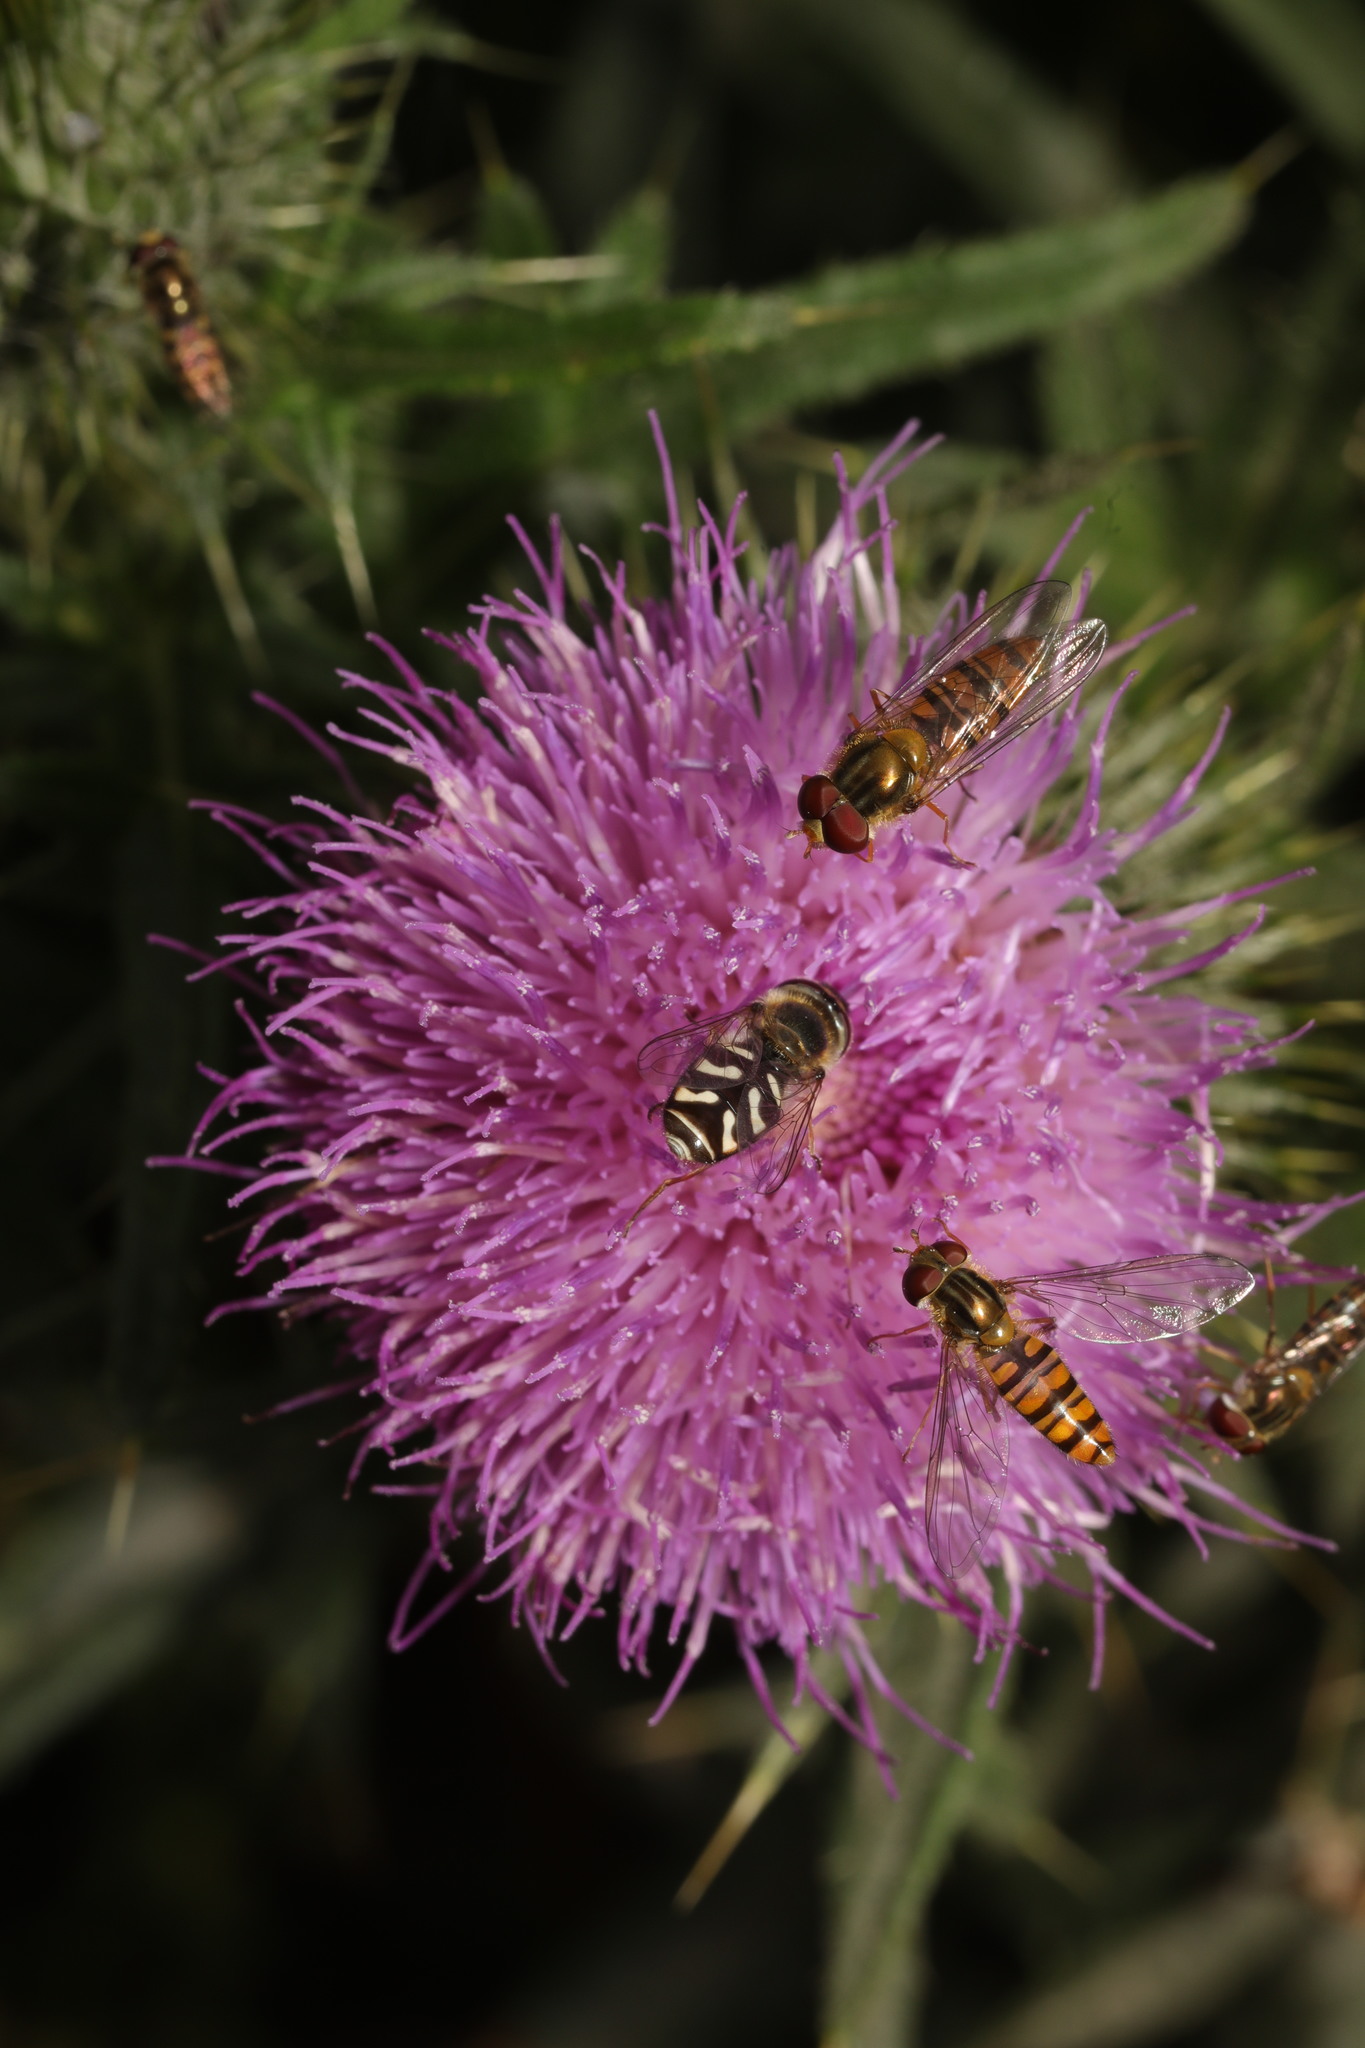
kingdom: Animalia
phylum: Arthropoda
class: Insecta
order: Diptera
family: Syrphidae
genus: Scaeva
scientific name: Scaeva pyrastri
